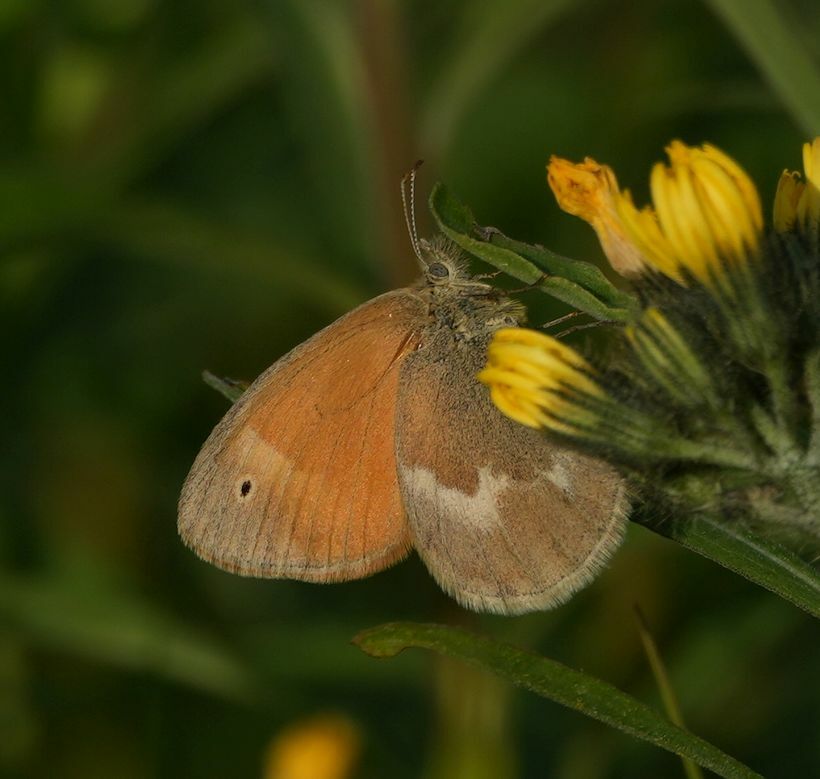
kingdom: Animalia
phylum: Arthropoda
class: Insecta
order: Lepidoptera
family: Nymphalidae
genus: Coenonympha
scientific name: Coenonympha california
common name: Common ringlet
